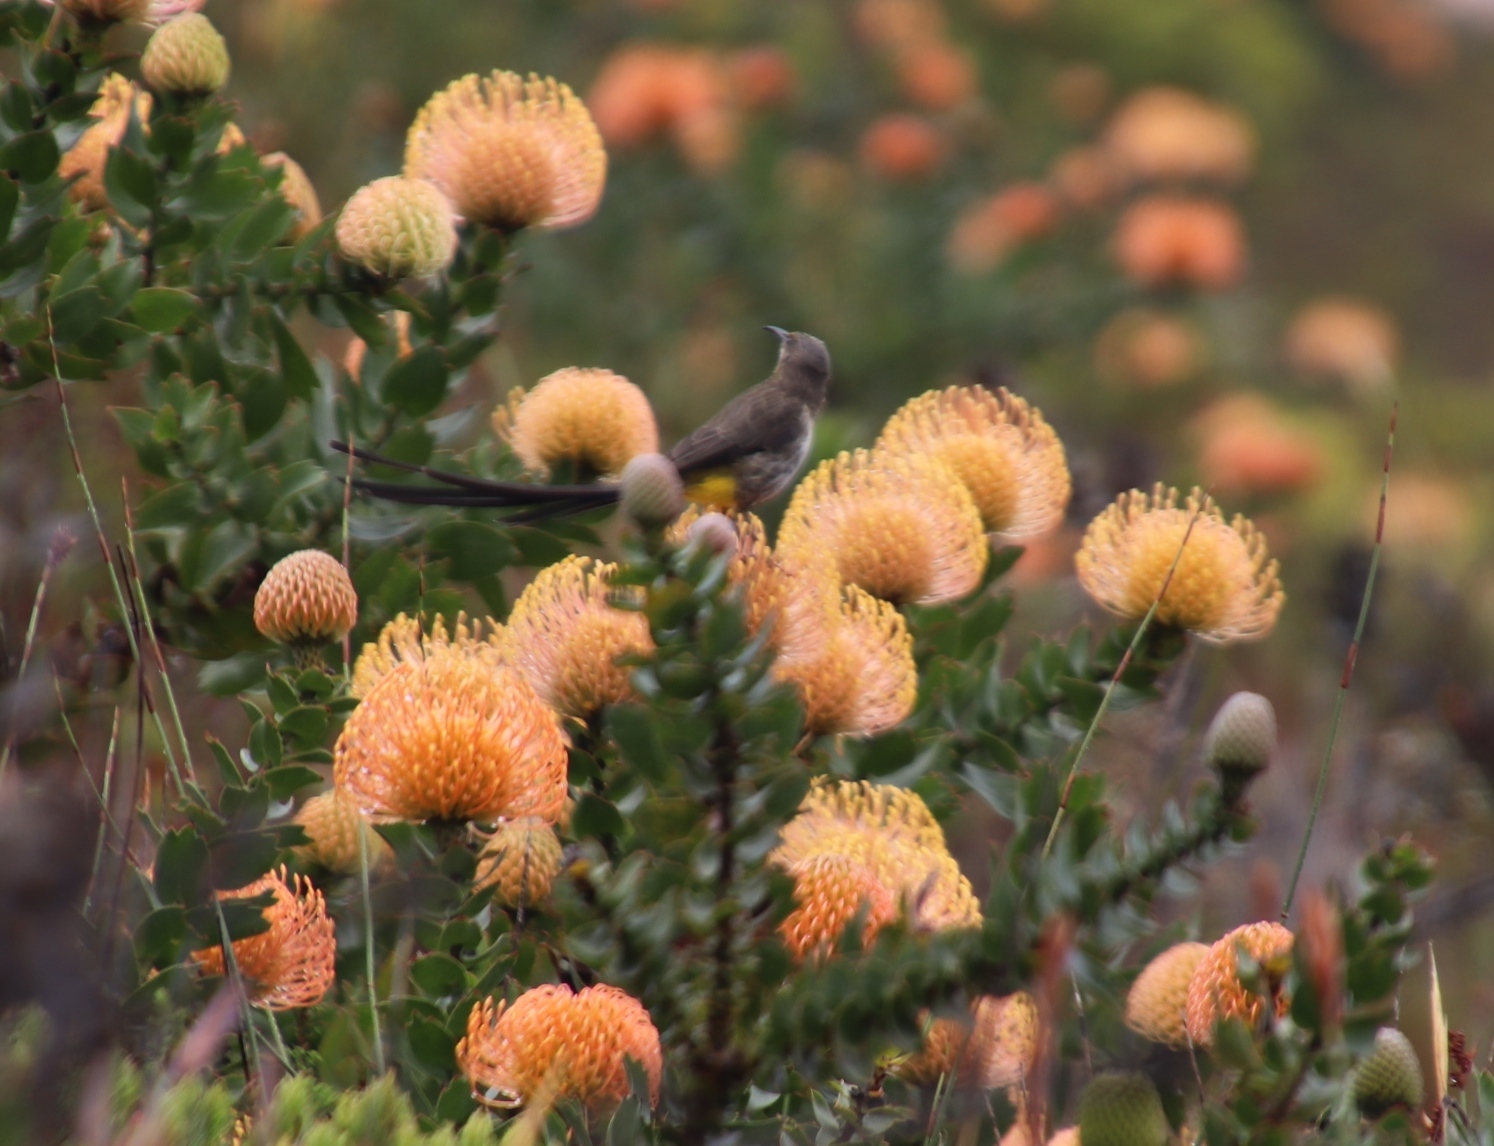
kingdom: Plantae
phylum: Tracheophyta
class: Magnoliopsida
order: Proteales
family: Proteaceae
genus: Leucospermum
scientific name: Leucospermum cordifolium
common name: Red pincushion-protea
